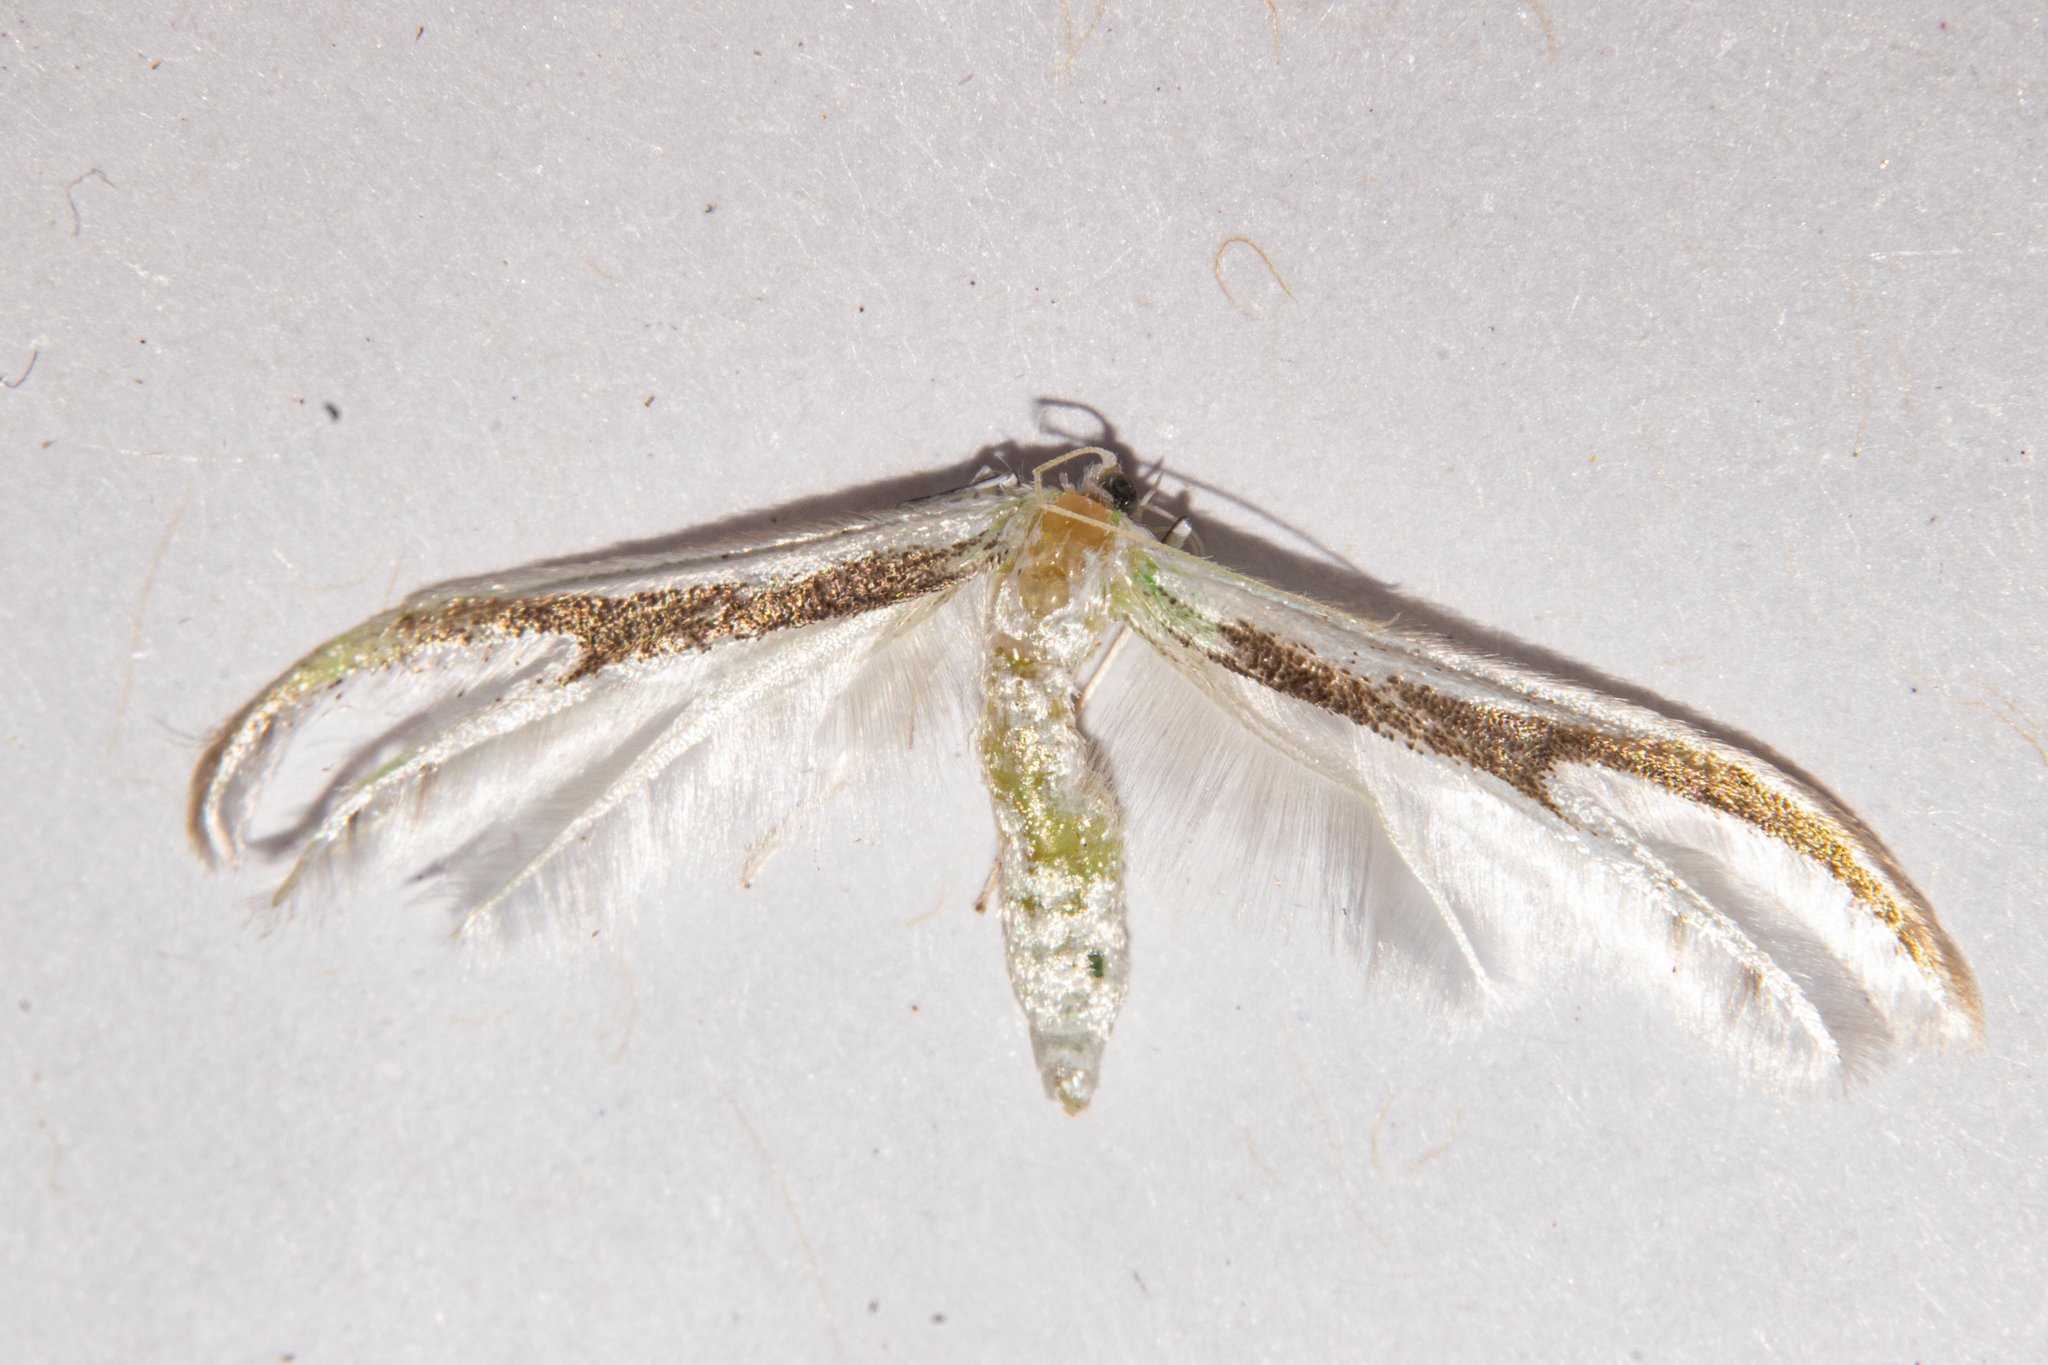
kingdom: Animalia
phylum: Arthropoda
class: Insecta
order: Lepidoptera
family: Pterophoridae
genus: Pterophorus
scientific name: Pterophorus furcatalis
